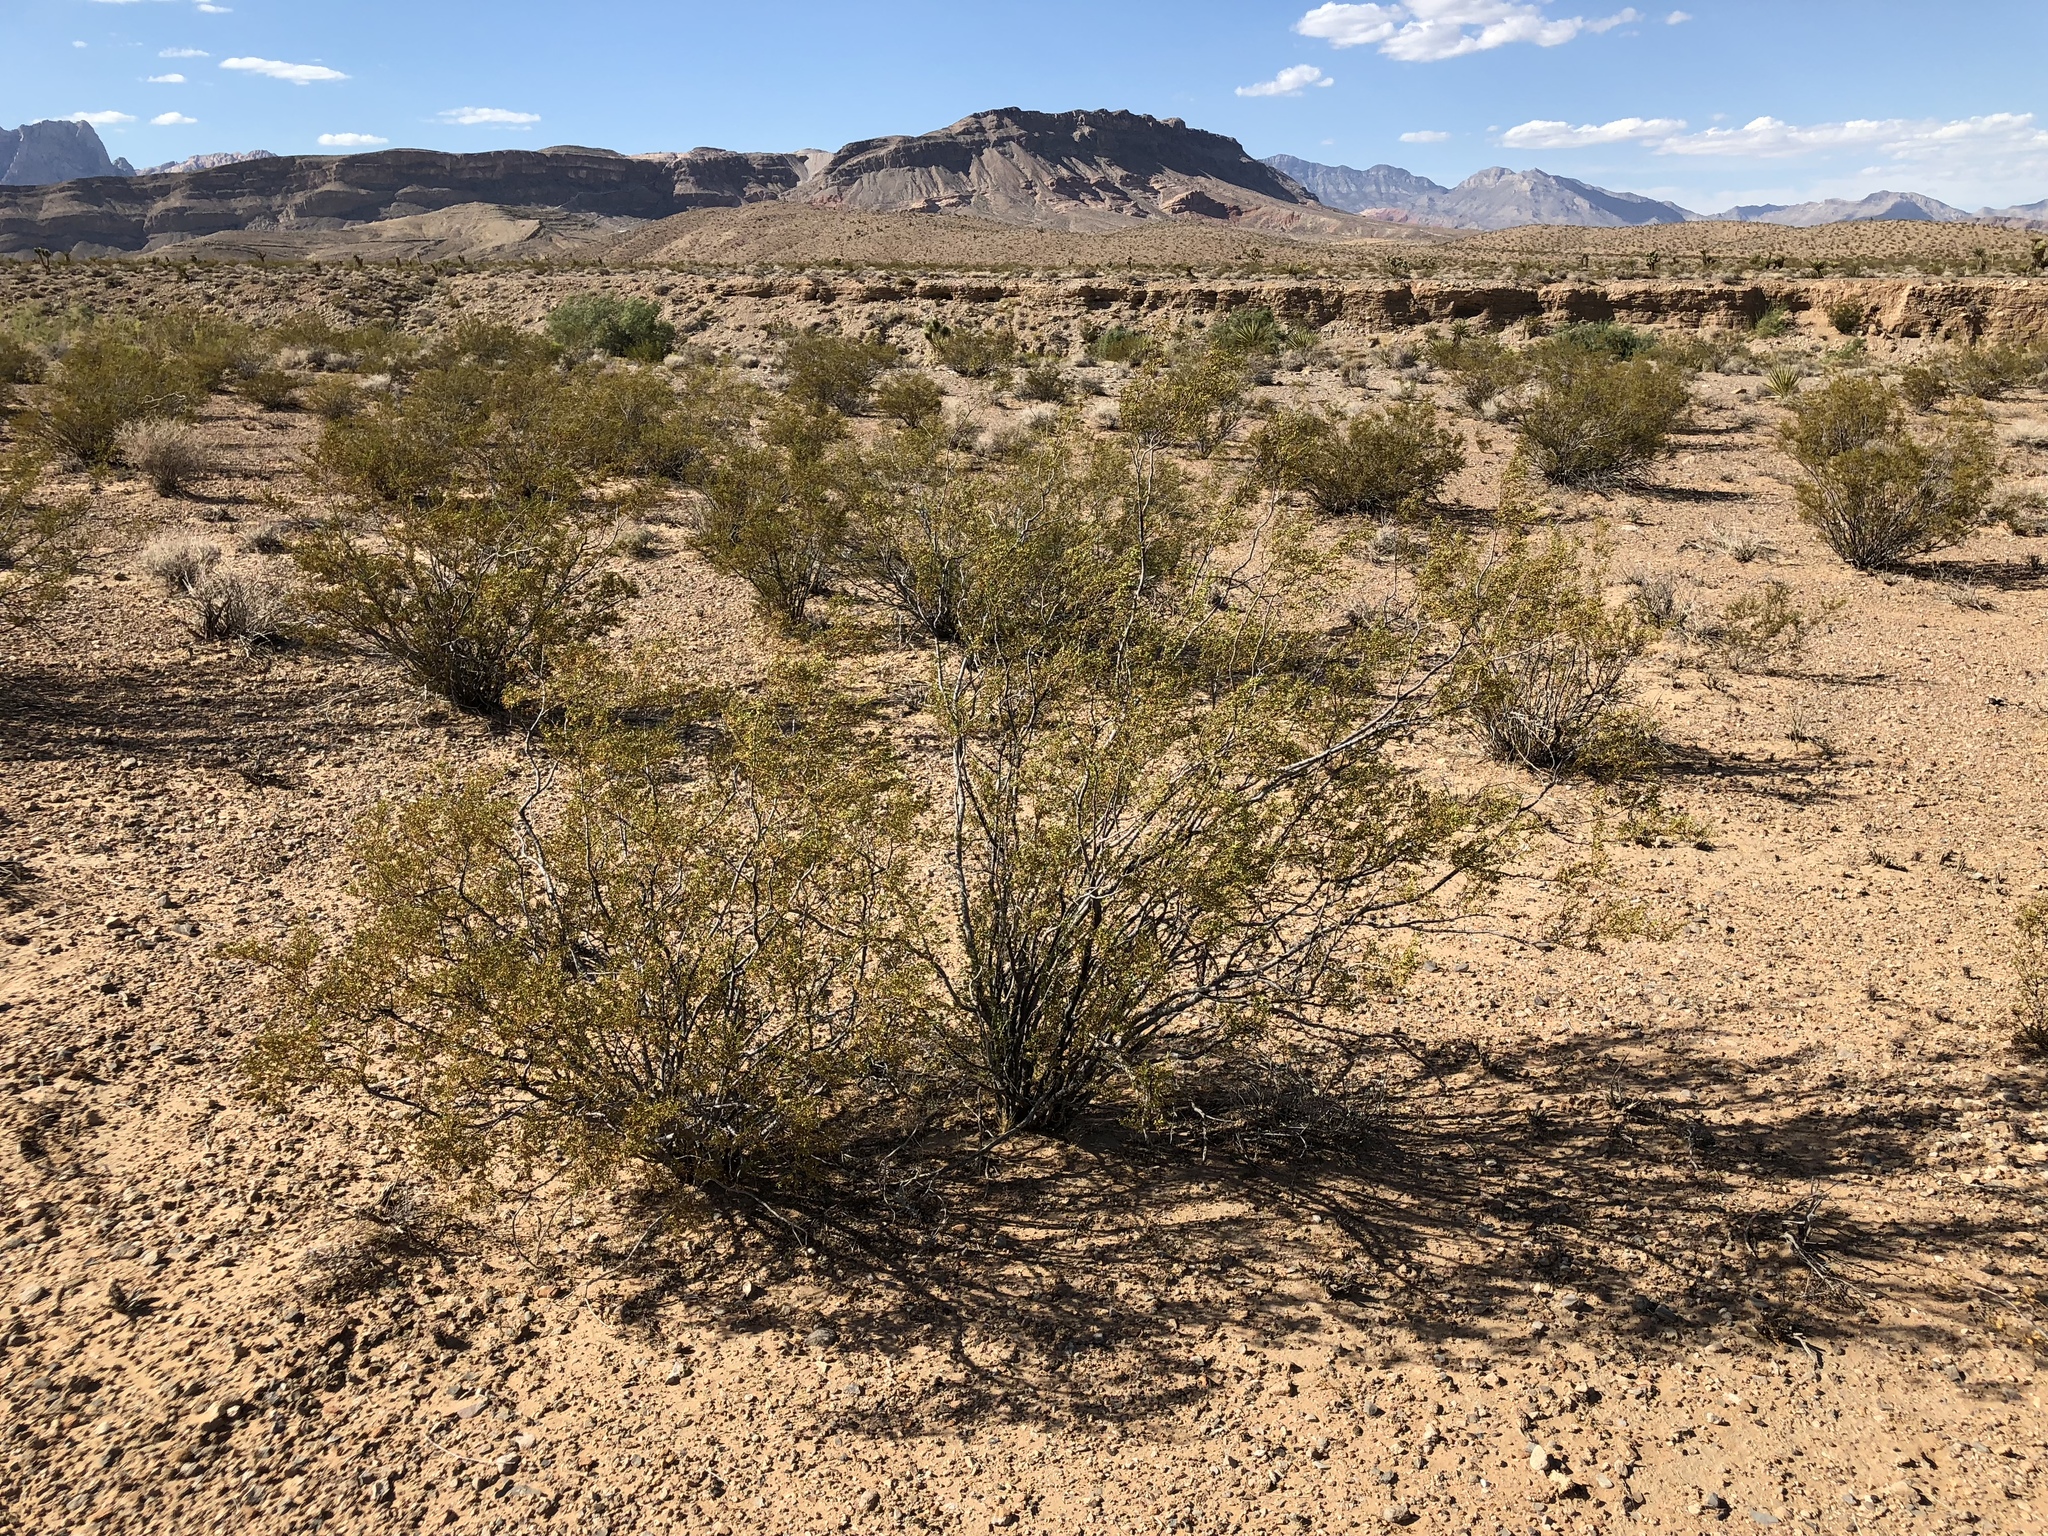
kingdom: Plantae
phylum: Tracheophyta
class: Magnoliopsida
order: Zygophyllales
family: Zygophyllaceae
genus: Larrea
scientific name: Larrea tridentata
